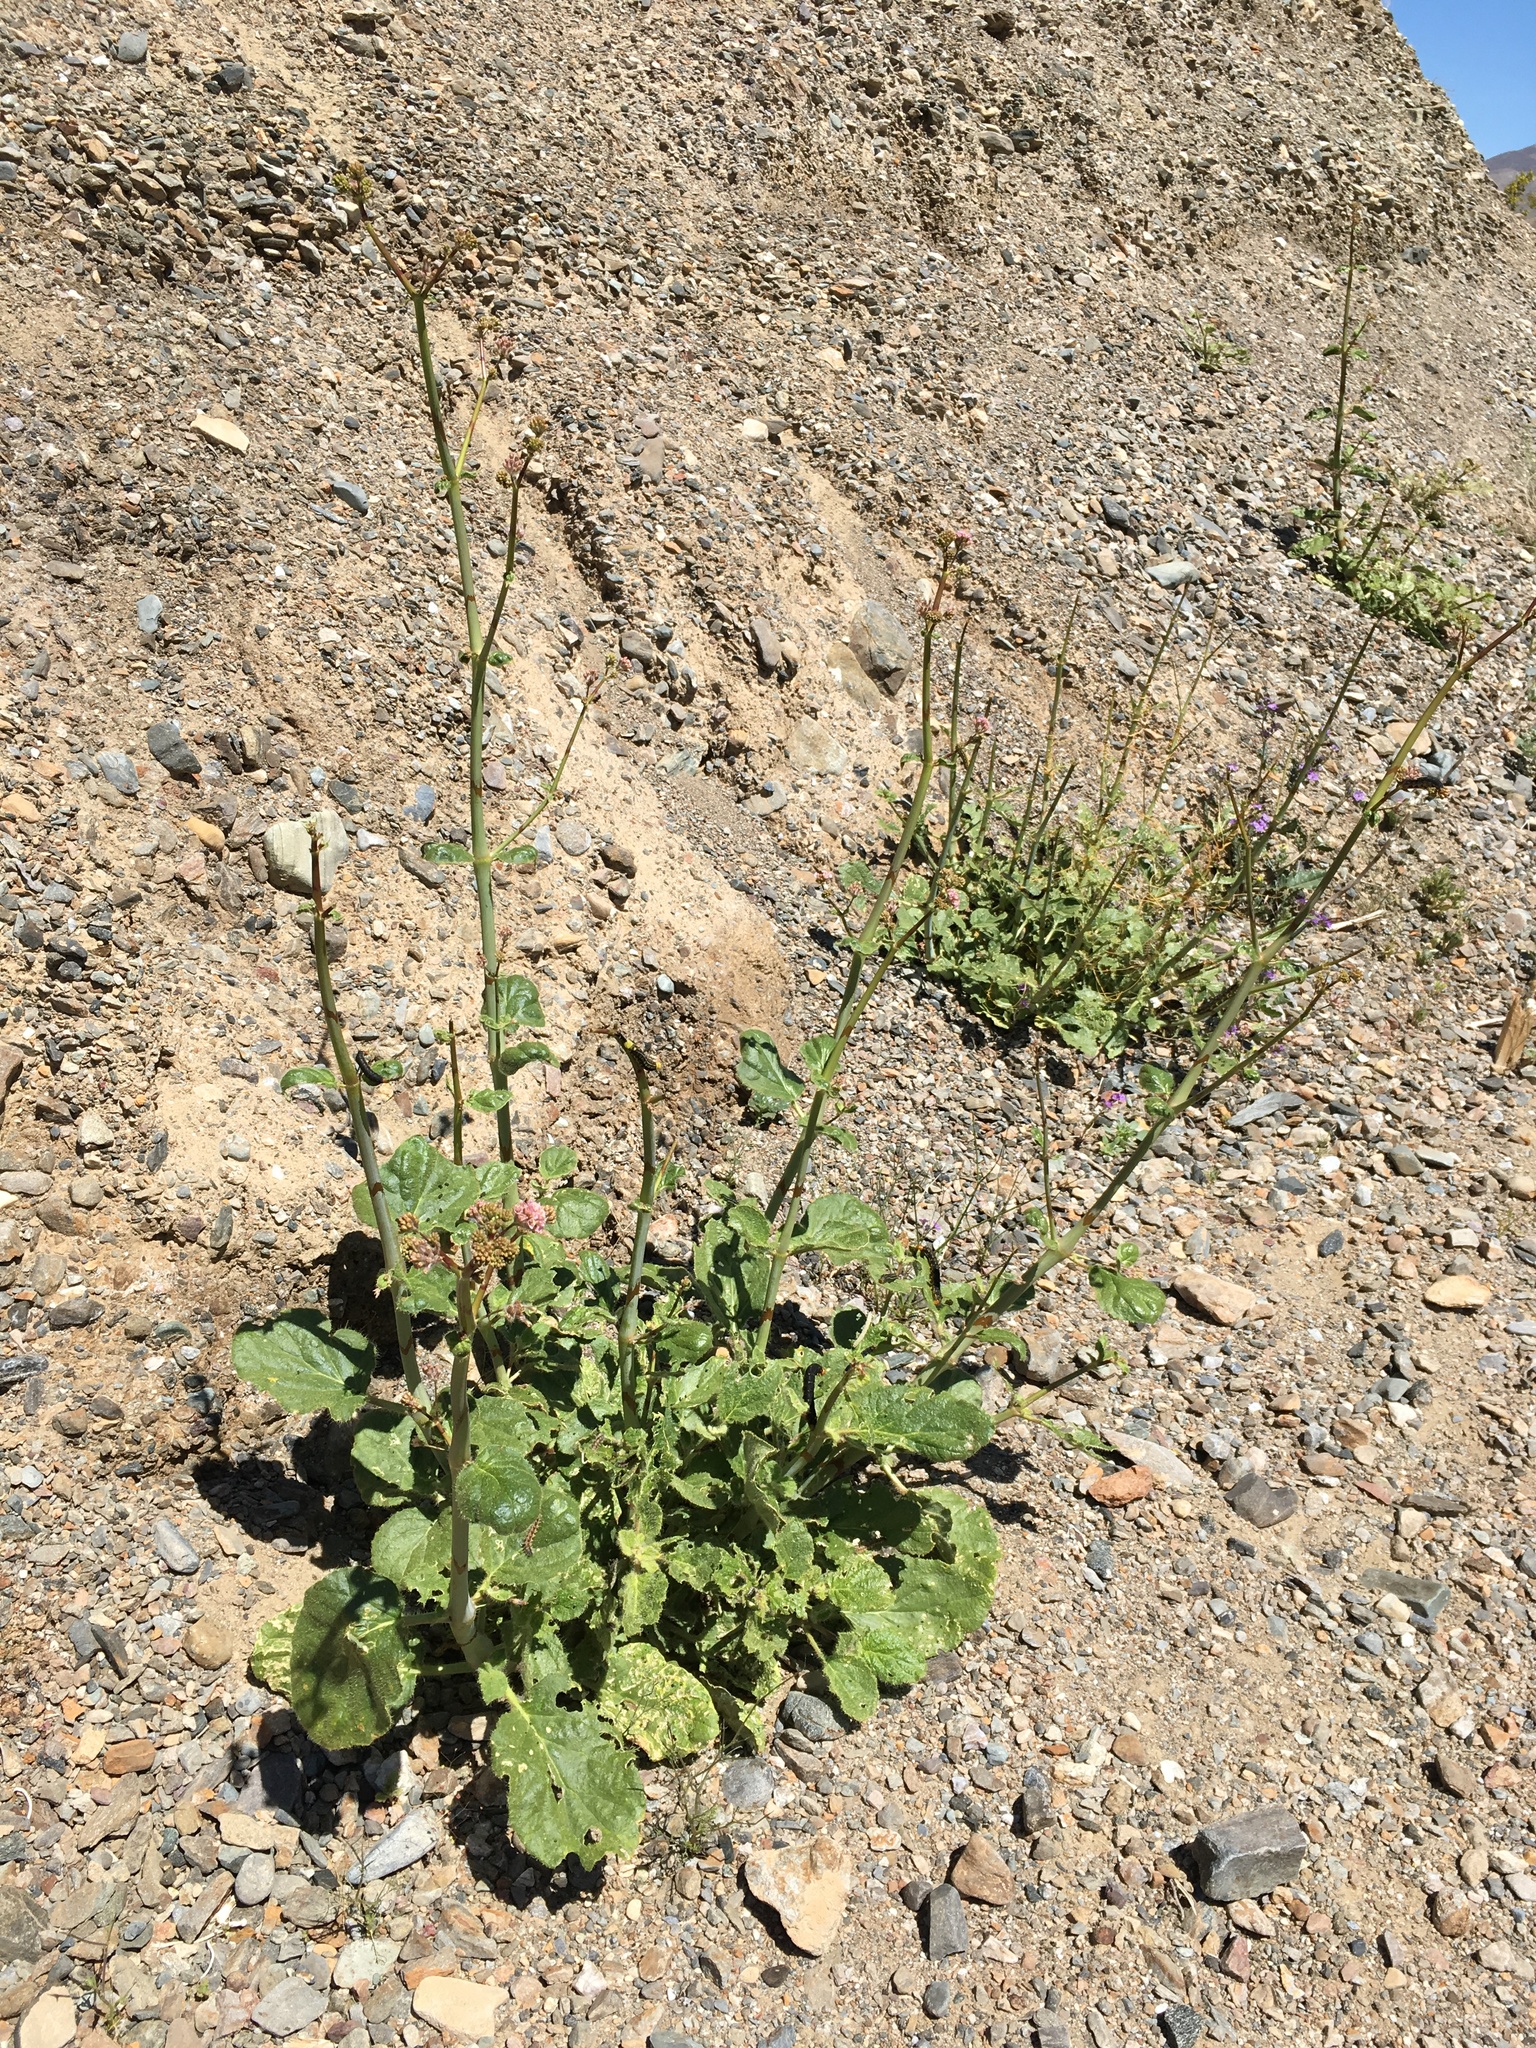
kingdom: Plantae
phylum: Tracheophyta
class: Magnoliopsida
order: Caryophyllales
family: Nyctaginaceae
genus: Anulocaulis
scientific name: Anulocaulis annulatus
